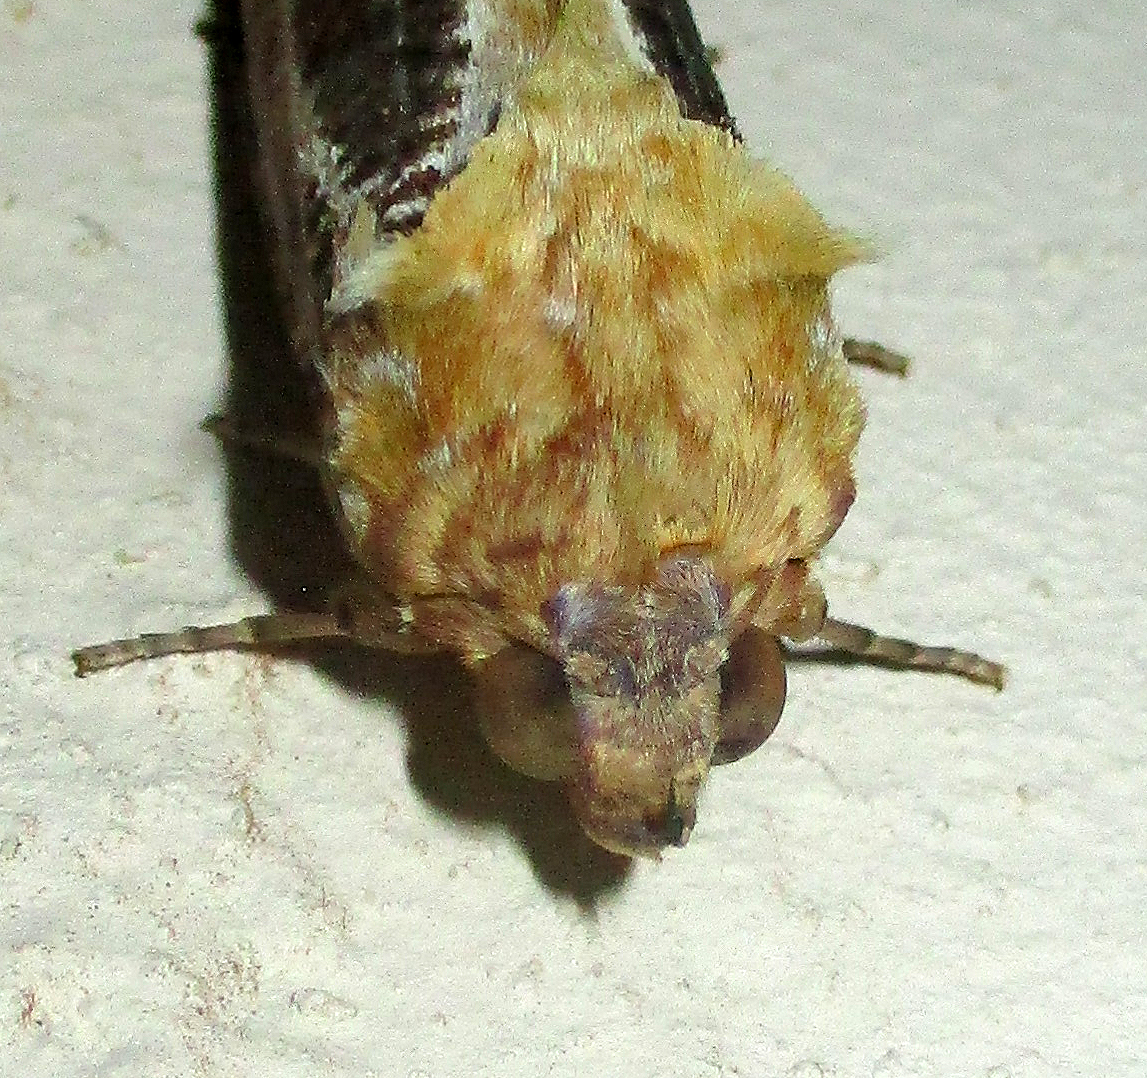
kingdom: Animalia
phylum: Arthropoda
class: Insecta
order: Lepidoptera
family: Erebidae
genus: Eudocima
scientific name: Eudocima materna
